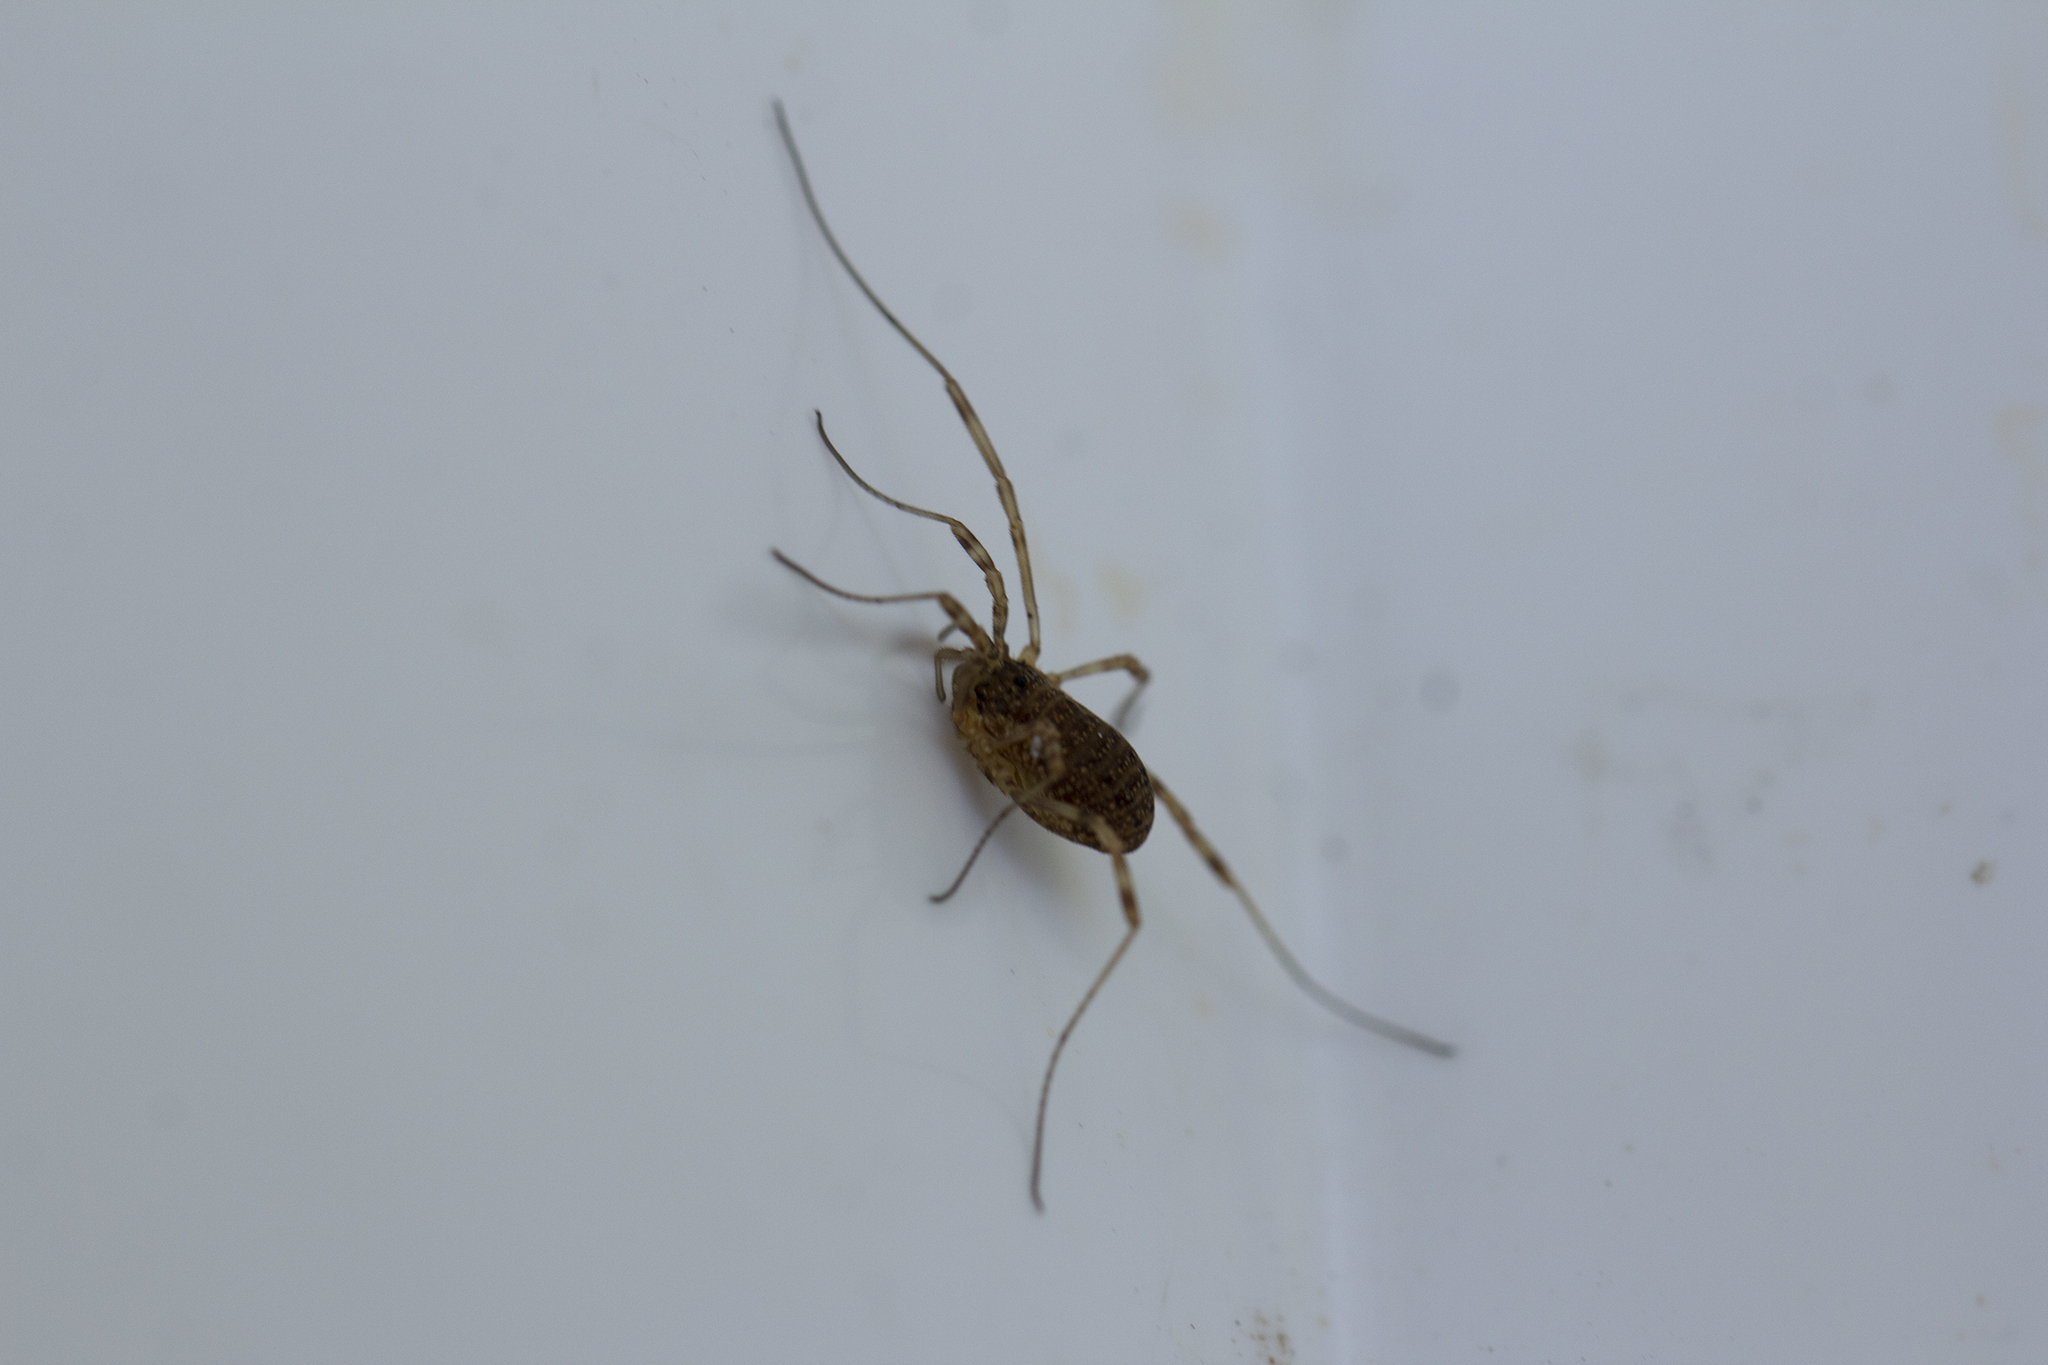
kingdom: Animalia
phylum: Arthropoda
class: Arachnida
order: Opiliones
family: Phalangiidae
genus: Oligolophus
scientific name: Oligolophus tridens
